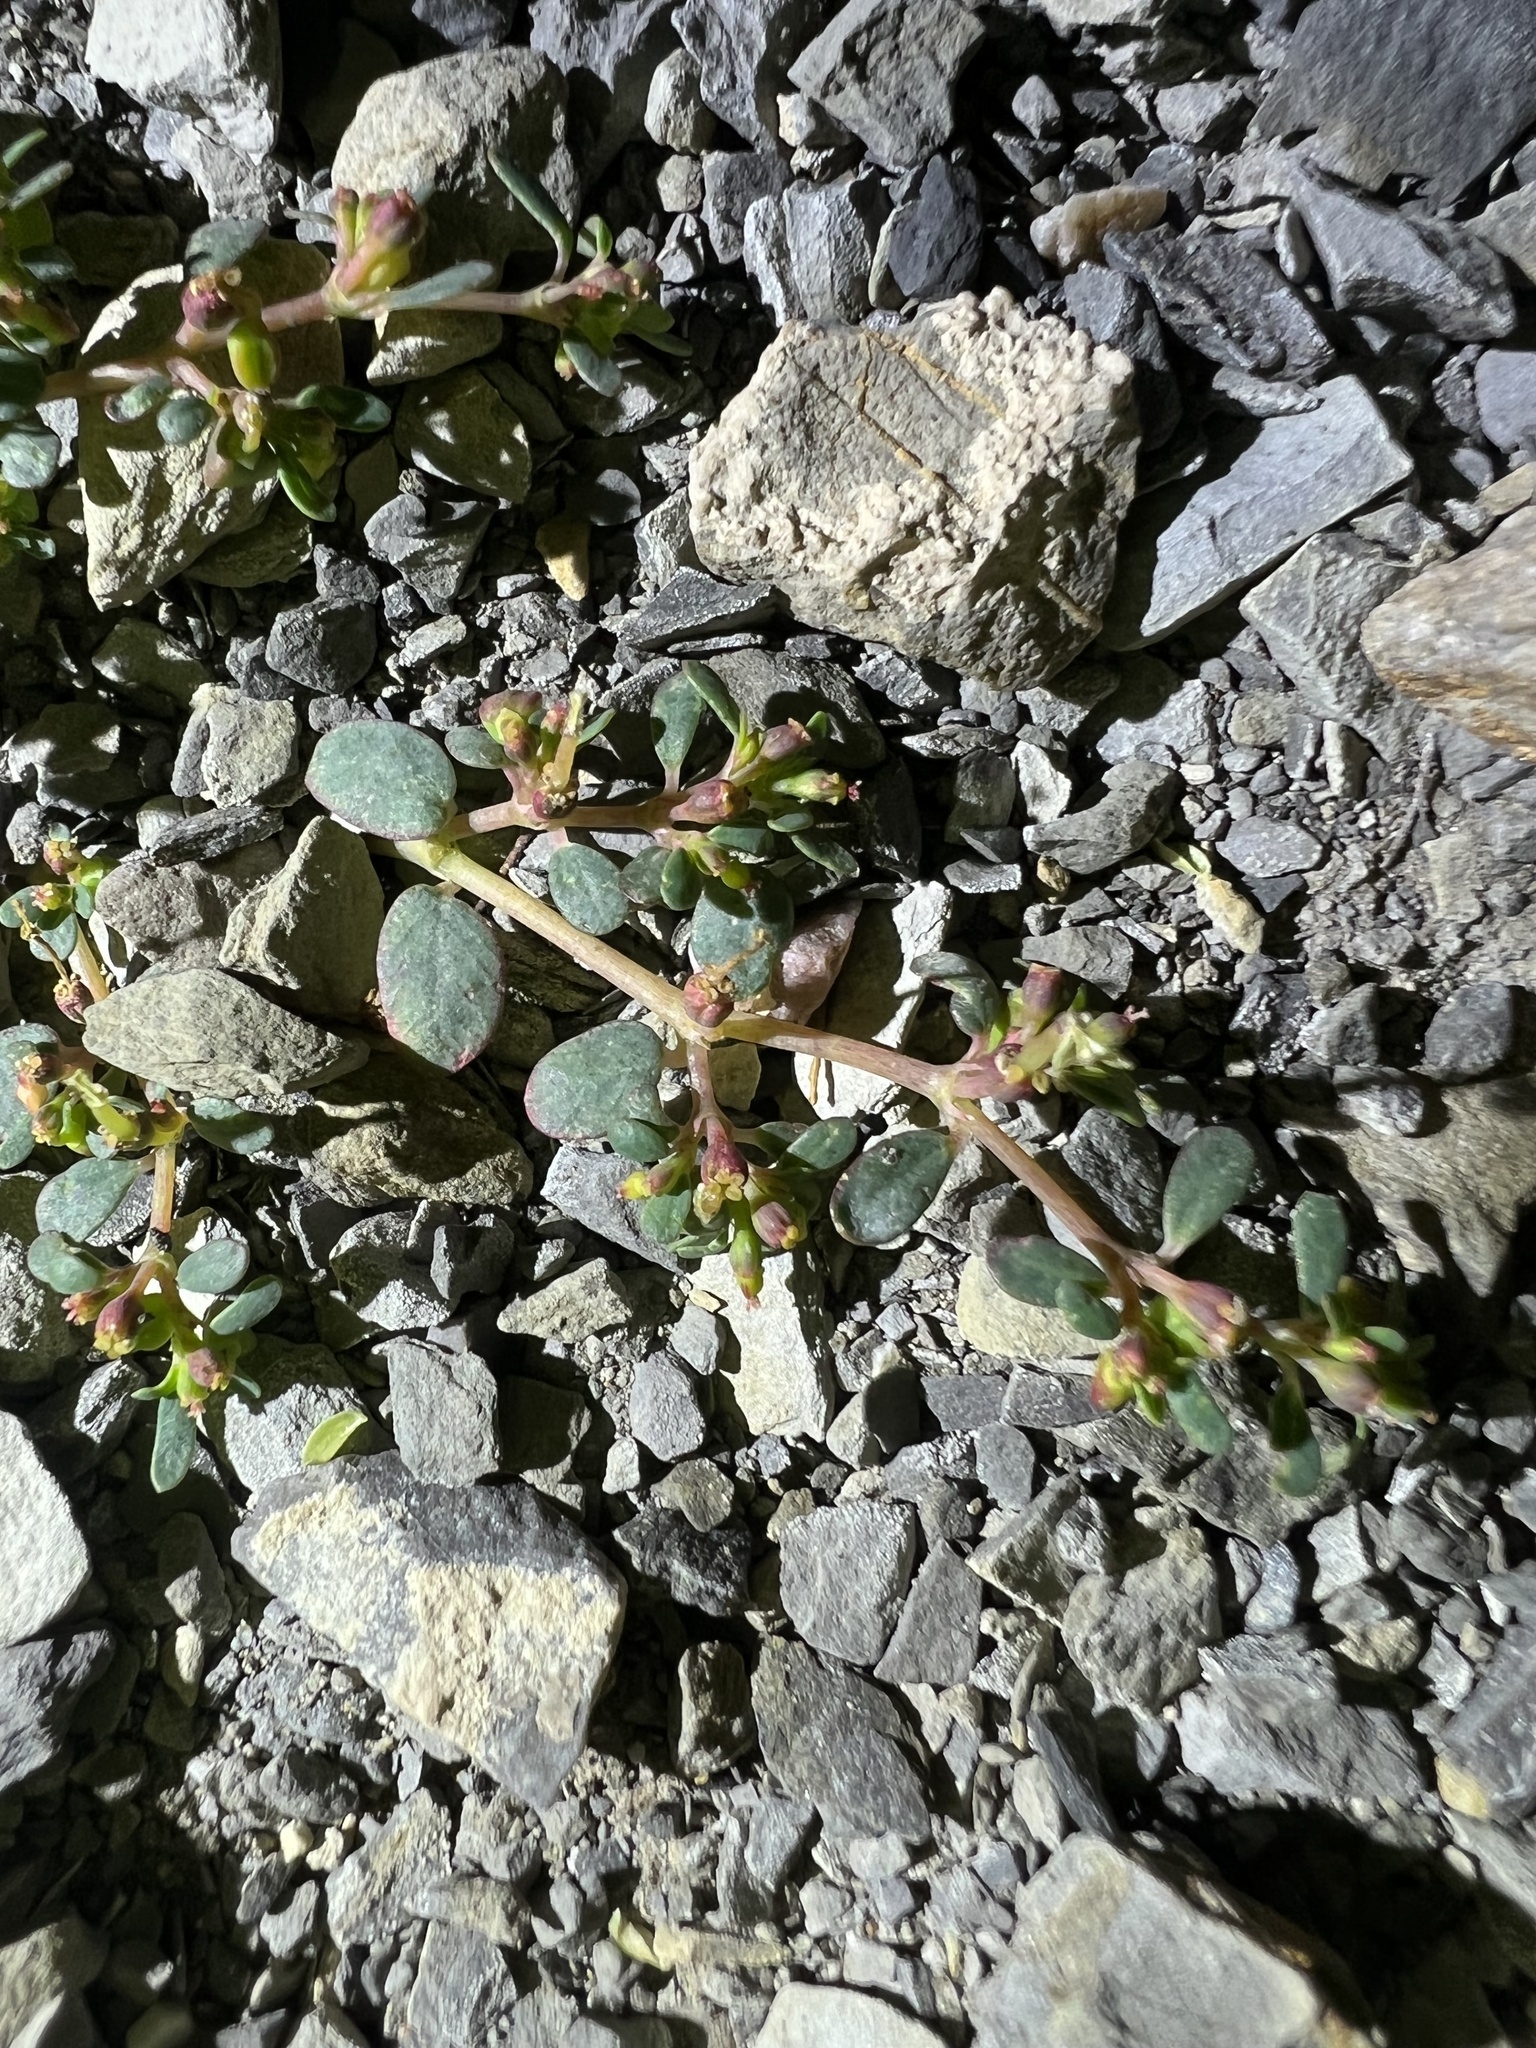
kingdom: Plantae
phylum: Tracheophyta
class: Magnoliopsida
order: Malpighiales
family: Euphorbiaceae
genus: Euphorbia
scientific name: Euphorbia cryptorubra
